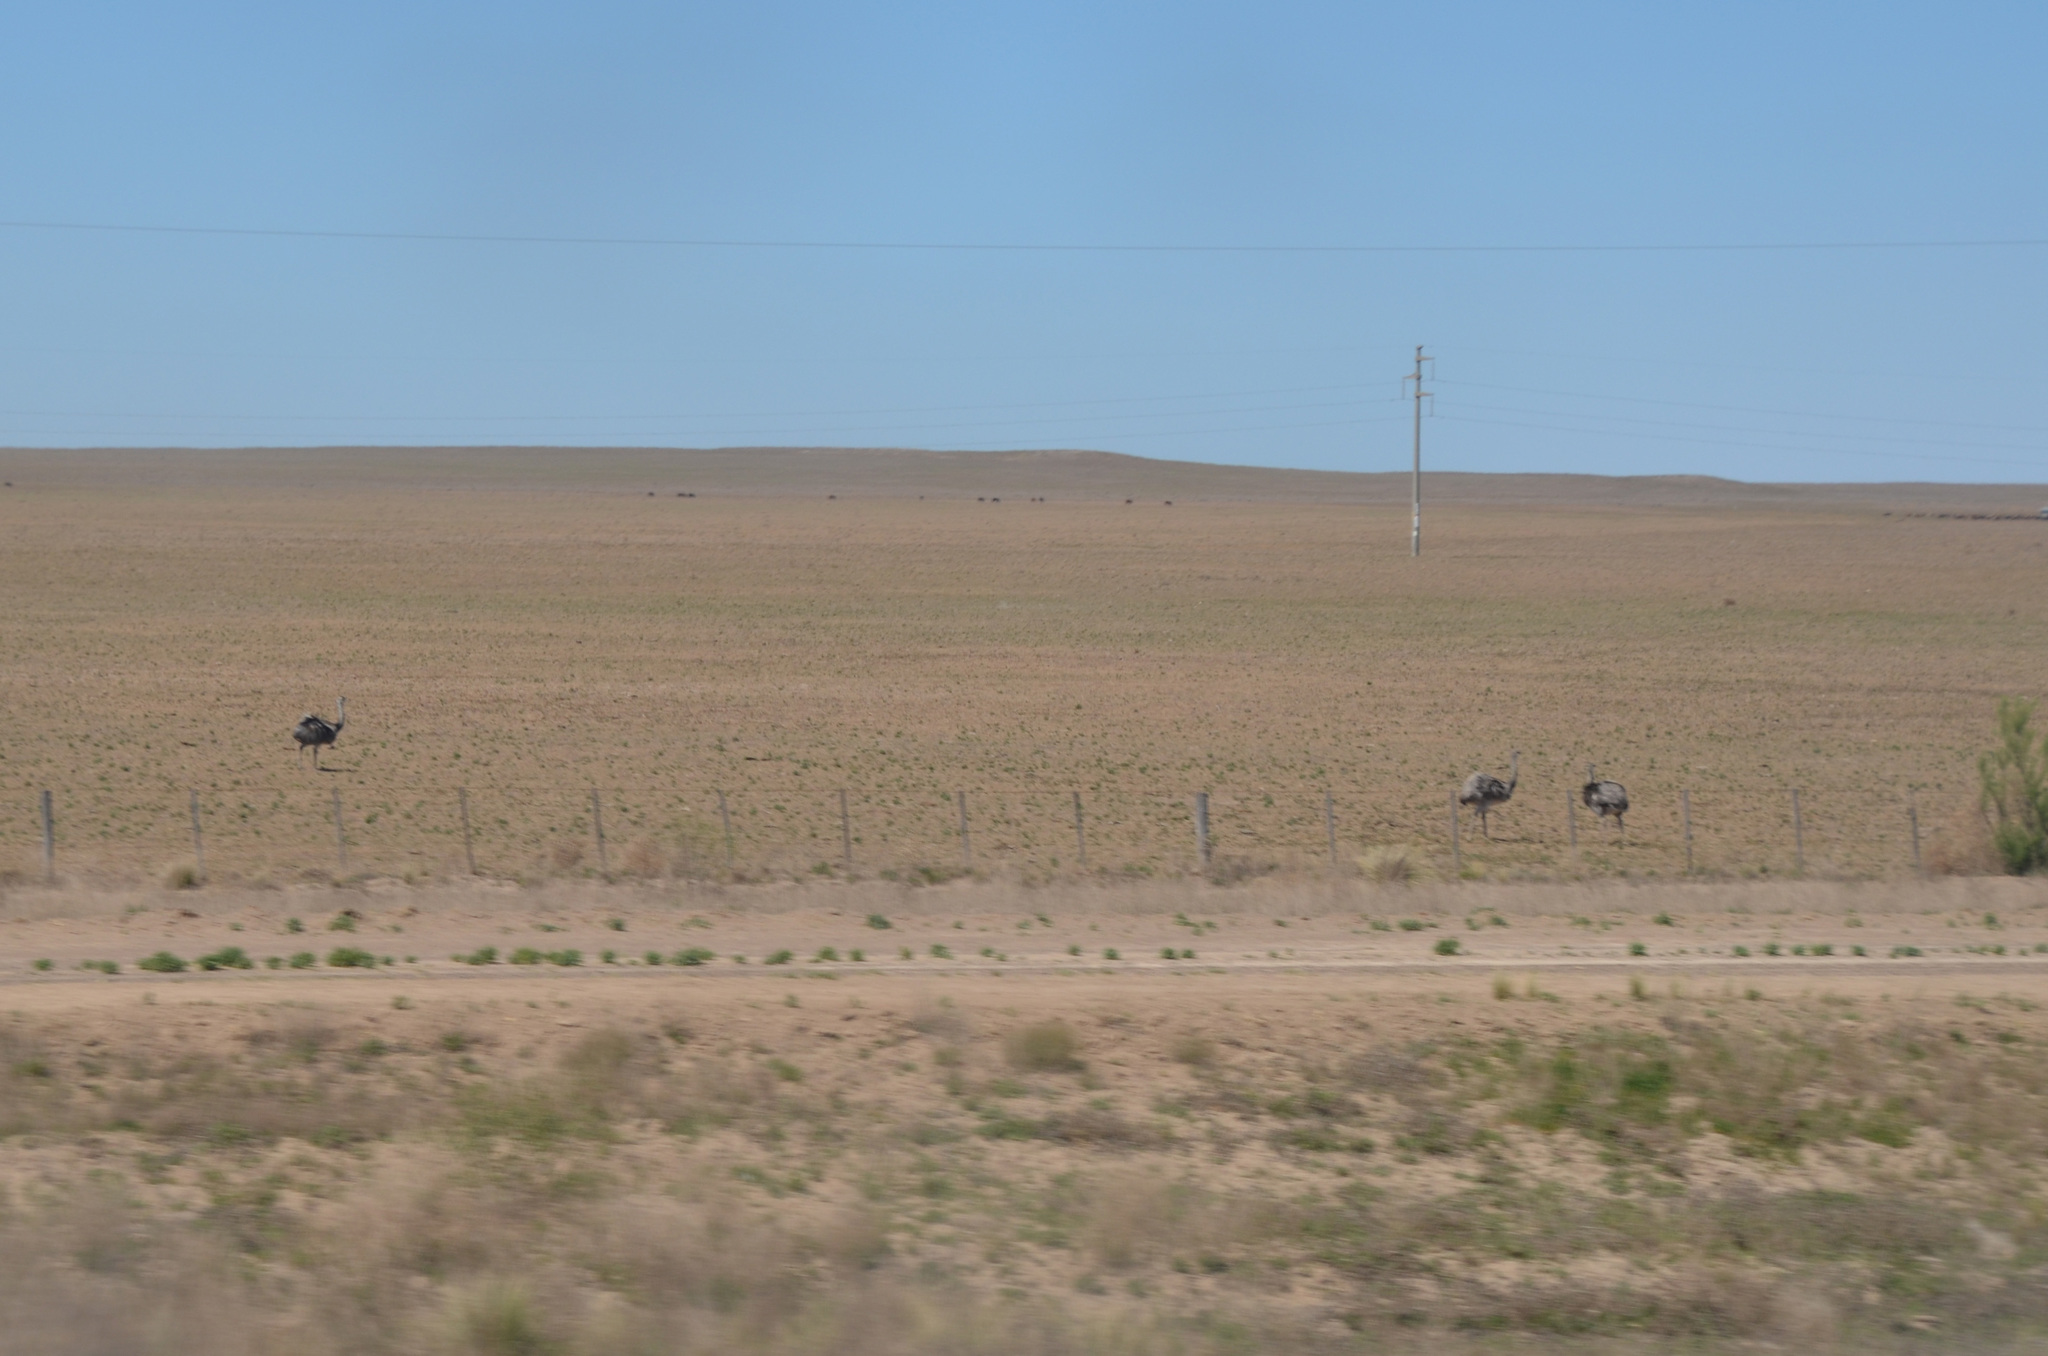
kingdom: Animalia
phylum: Chordata
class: Aves
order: Rheiformes
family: Rheidae
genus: Rhea
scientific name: Rhea americana
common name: Greater rhea
